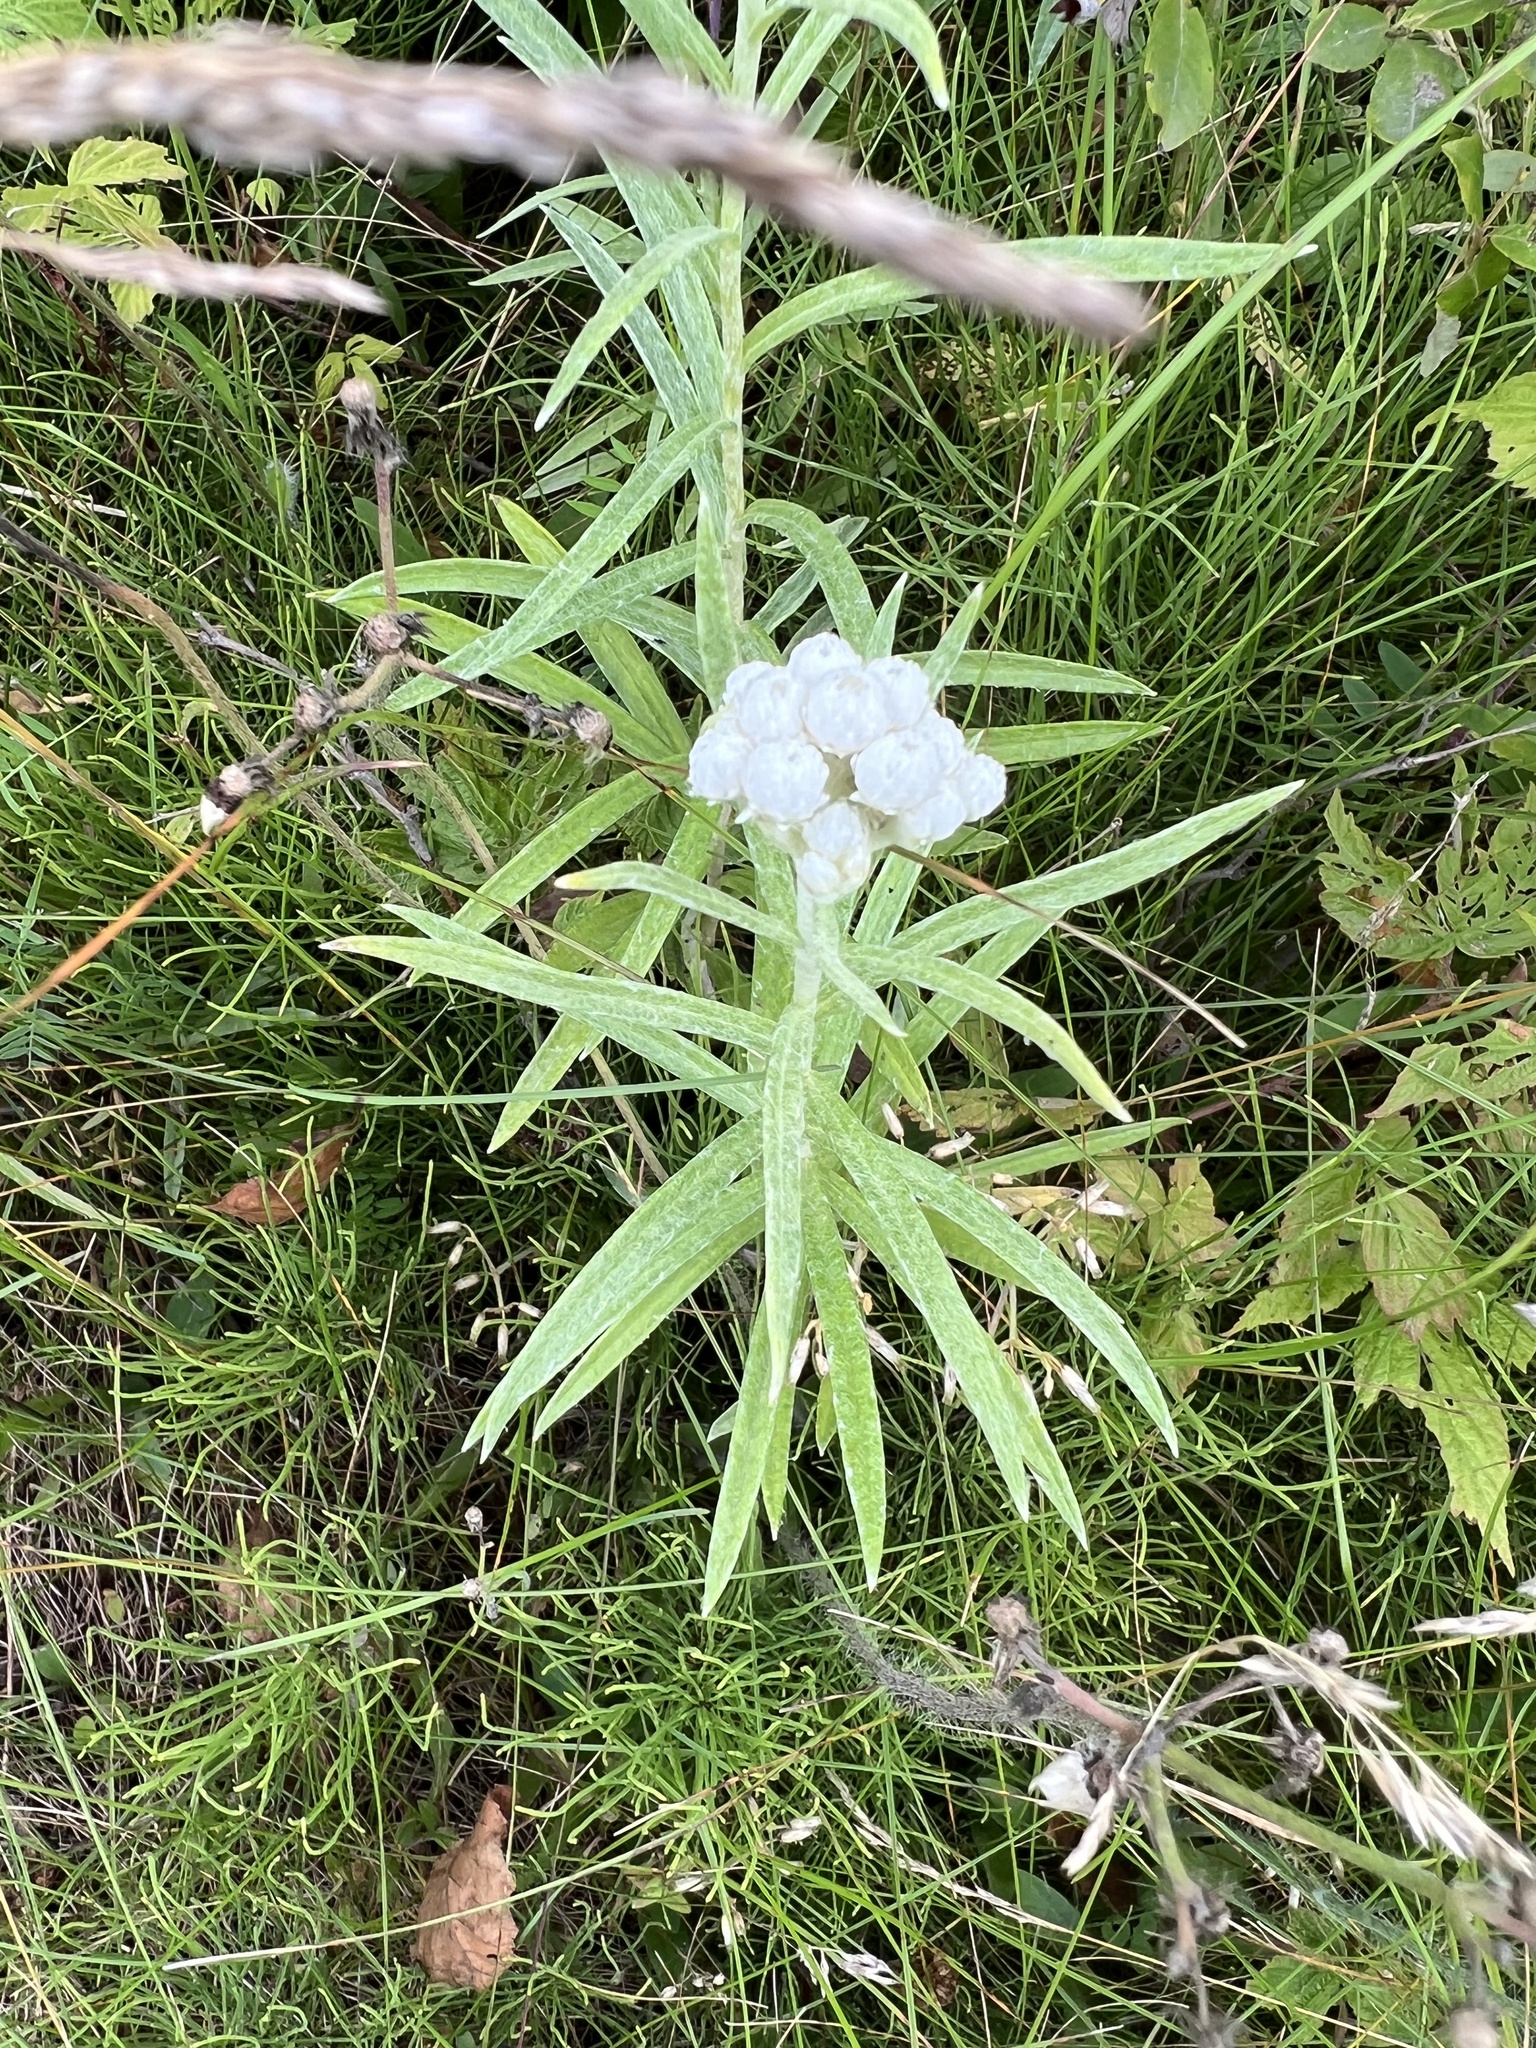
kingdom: Plantae
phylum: Tracheophyta
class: Magnoliopsida
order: Asterales
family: Asteraceae
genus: Anaphalis
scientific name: Anaphalis margaritacea
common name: Pearly everlasting
